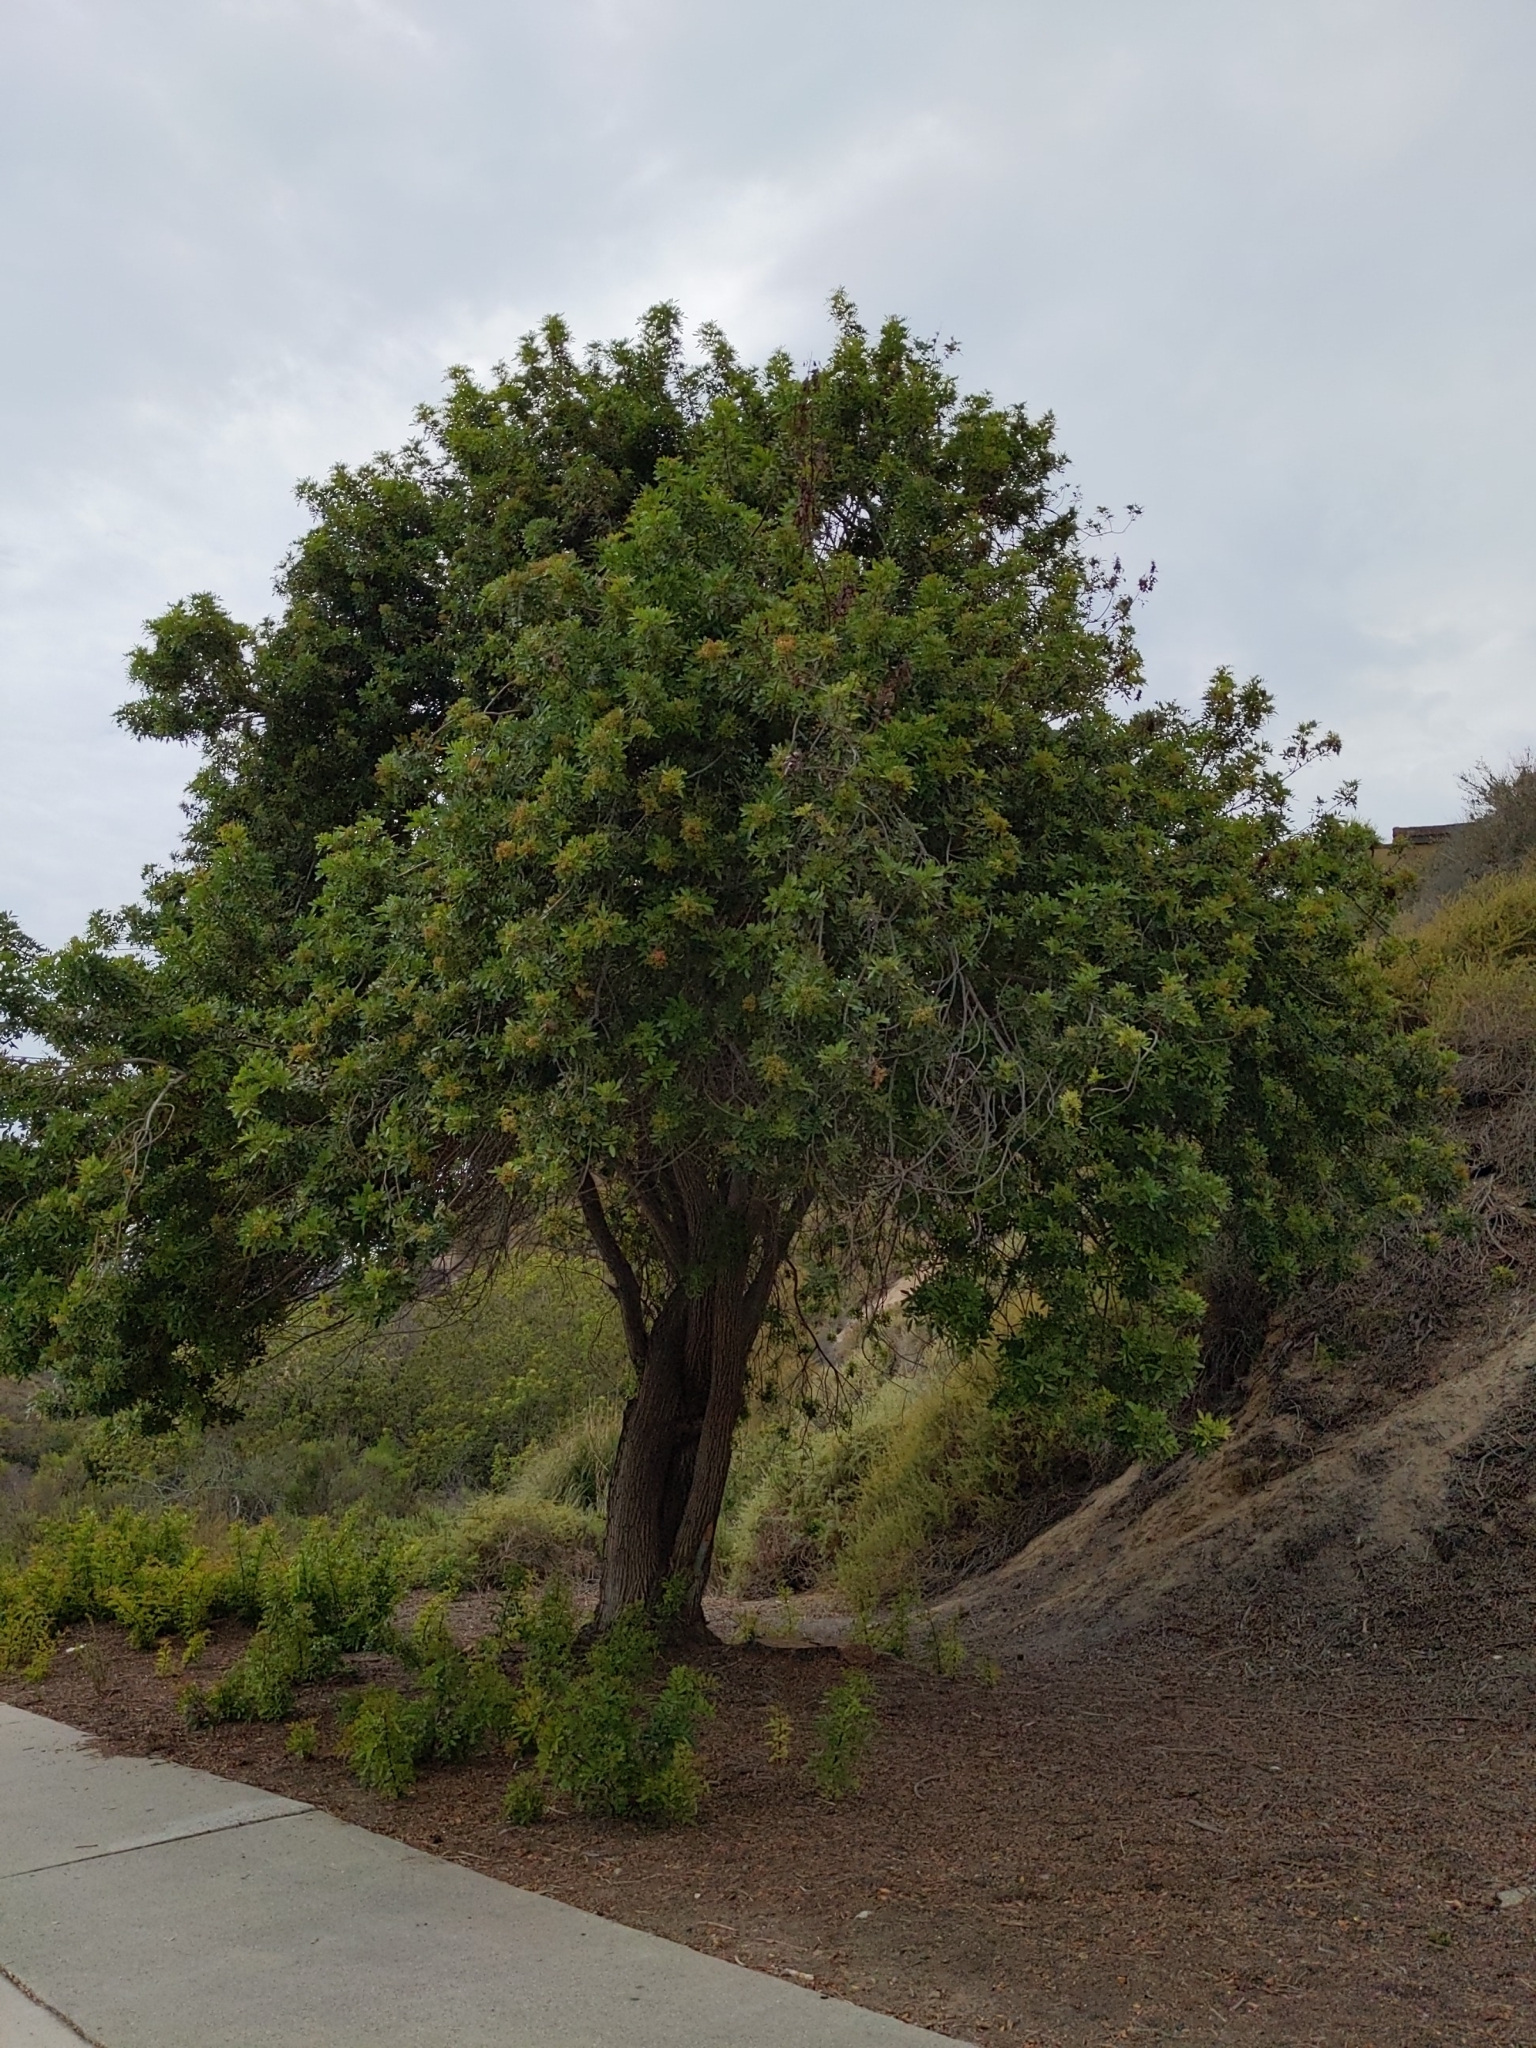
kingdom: Plantae
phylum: Tracheophyta
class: Magnoliopsida
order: Sapindales
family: Anacardiaceae
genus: Schinus
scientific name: Schinus terebinthifolia
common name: Brazilian peppertree
